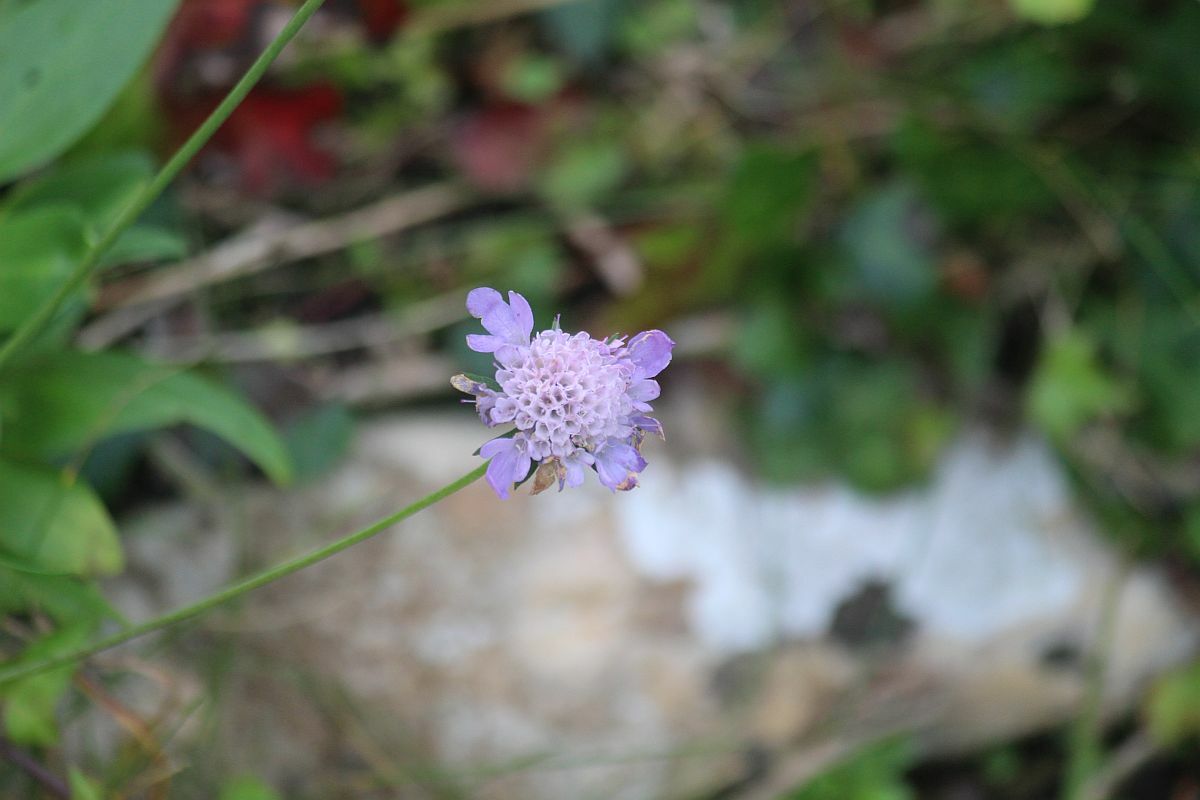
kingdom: Plantae
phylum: Tracheophyta
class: Magnoliopsida
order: Dipsacales
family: Caprifoliaceae
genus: Scabiosa
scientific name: Scabiosa columbaria
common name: Small scabious
